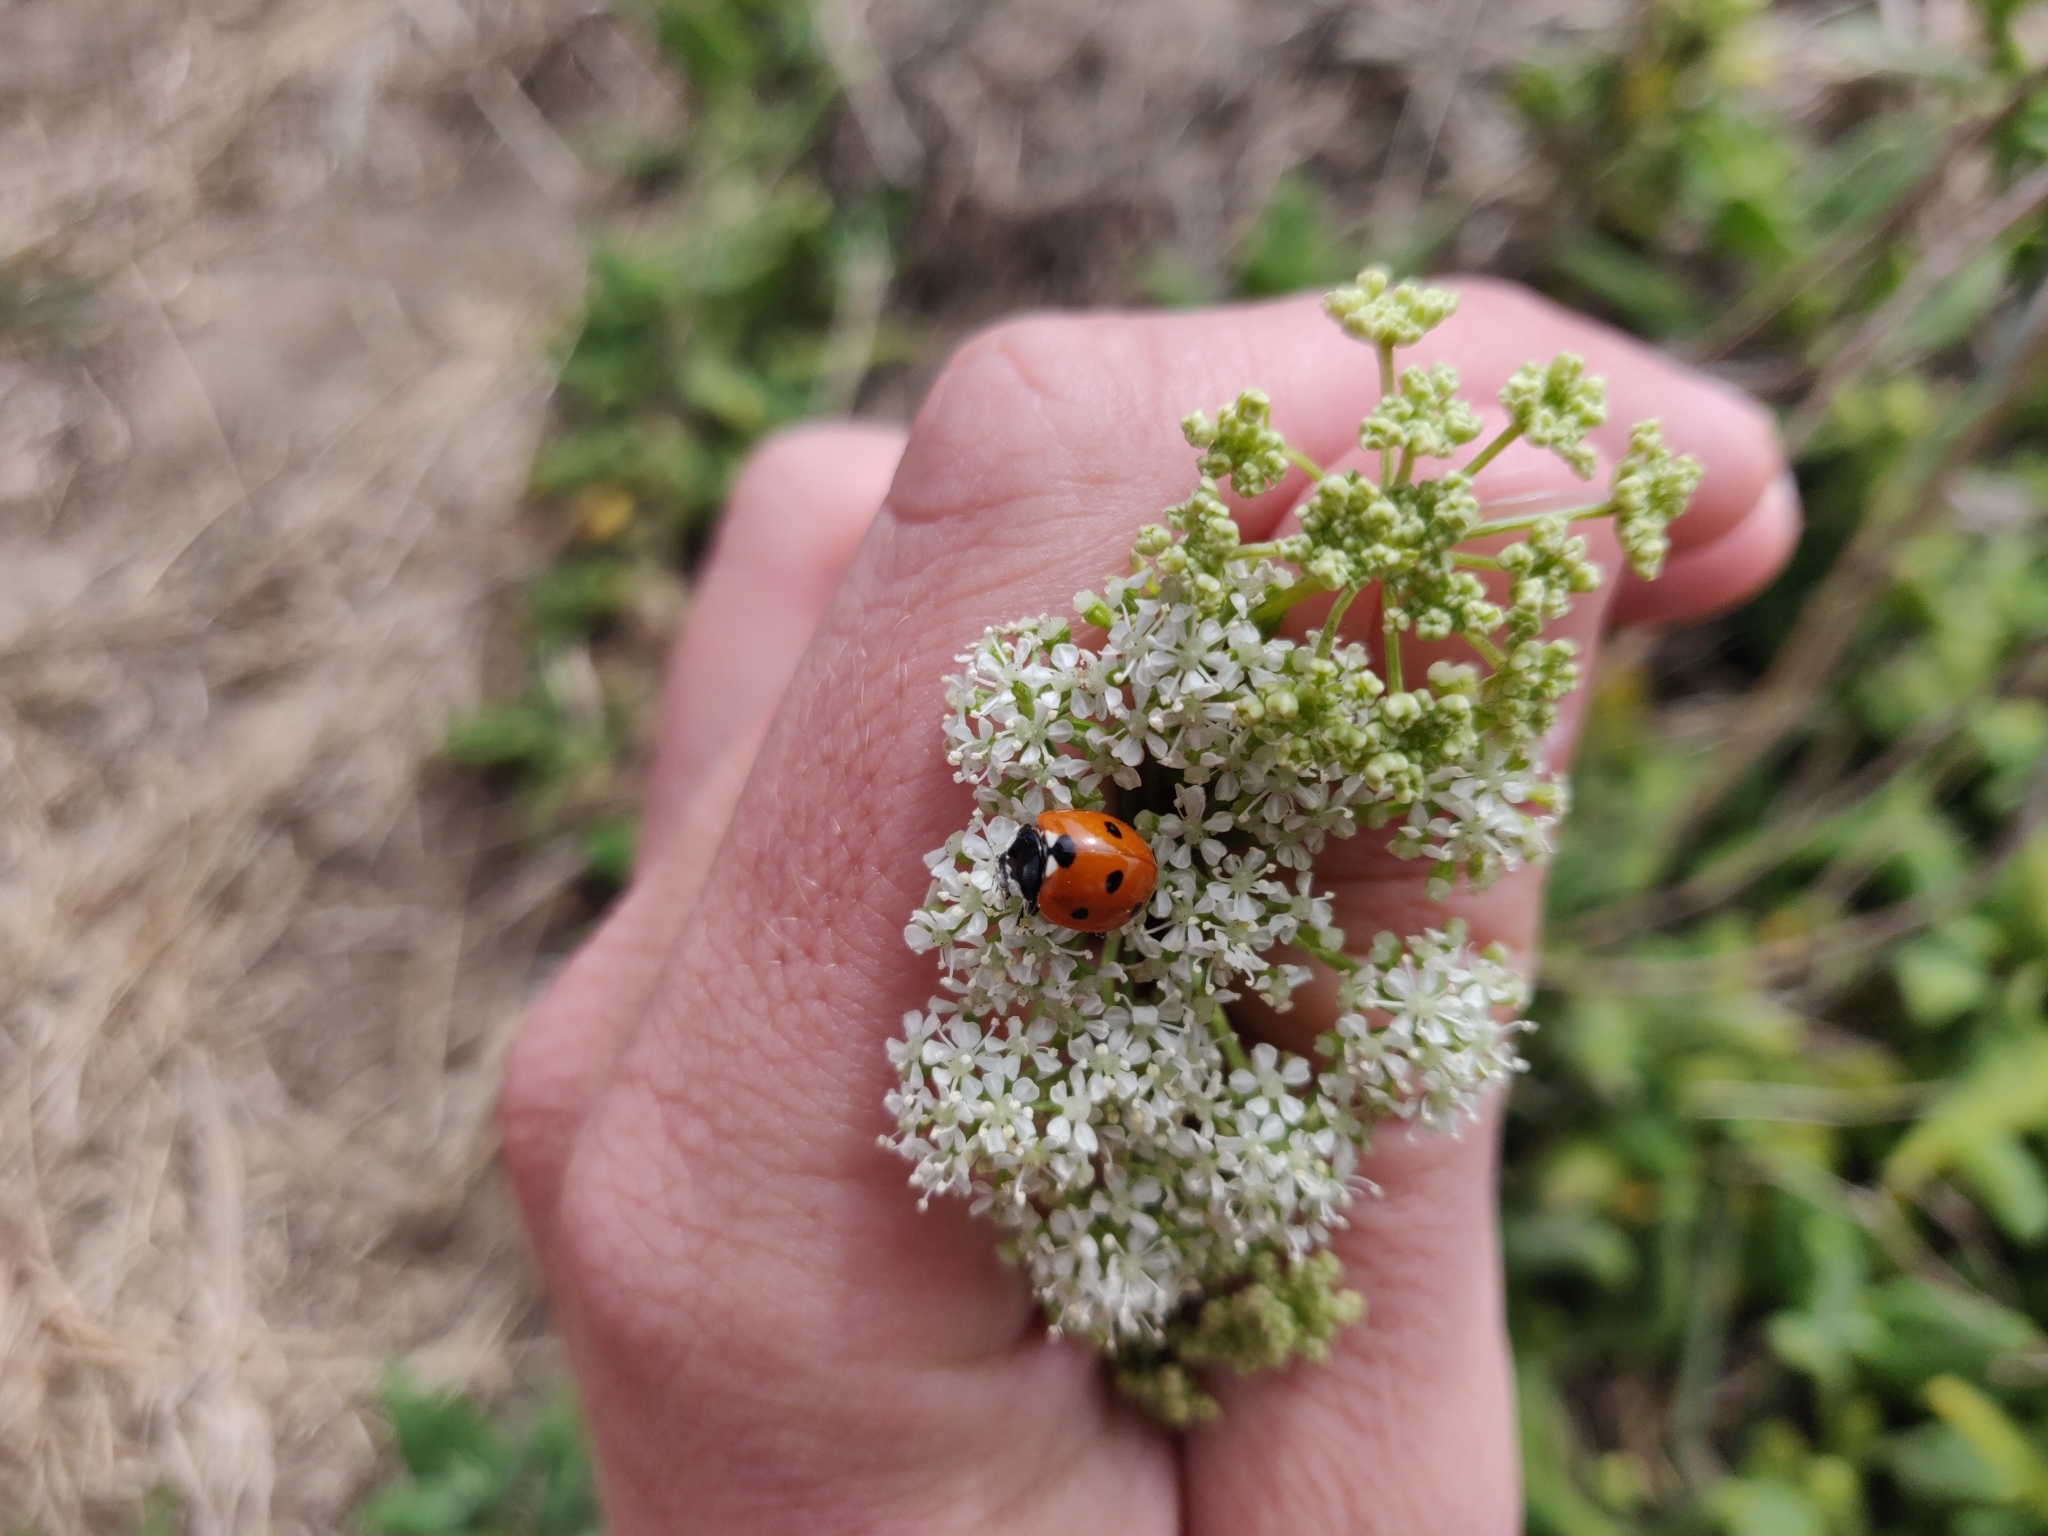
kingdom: Animalia
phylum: Arthropoda
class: Insecta
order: Coleoptera
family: Coccinellidae
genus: Coccinella
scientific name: Coccinella septempunctata
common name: Sevenspotted lady beetle
